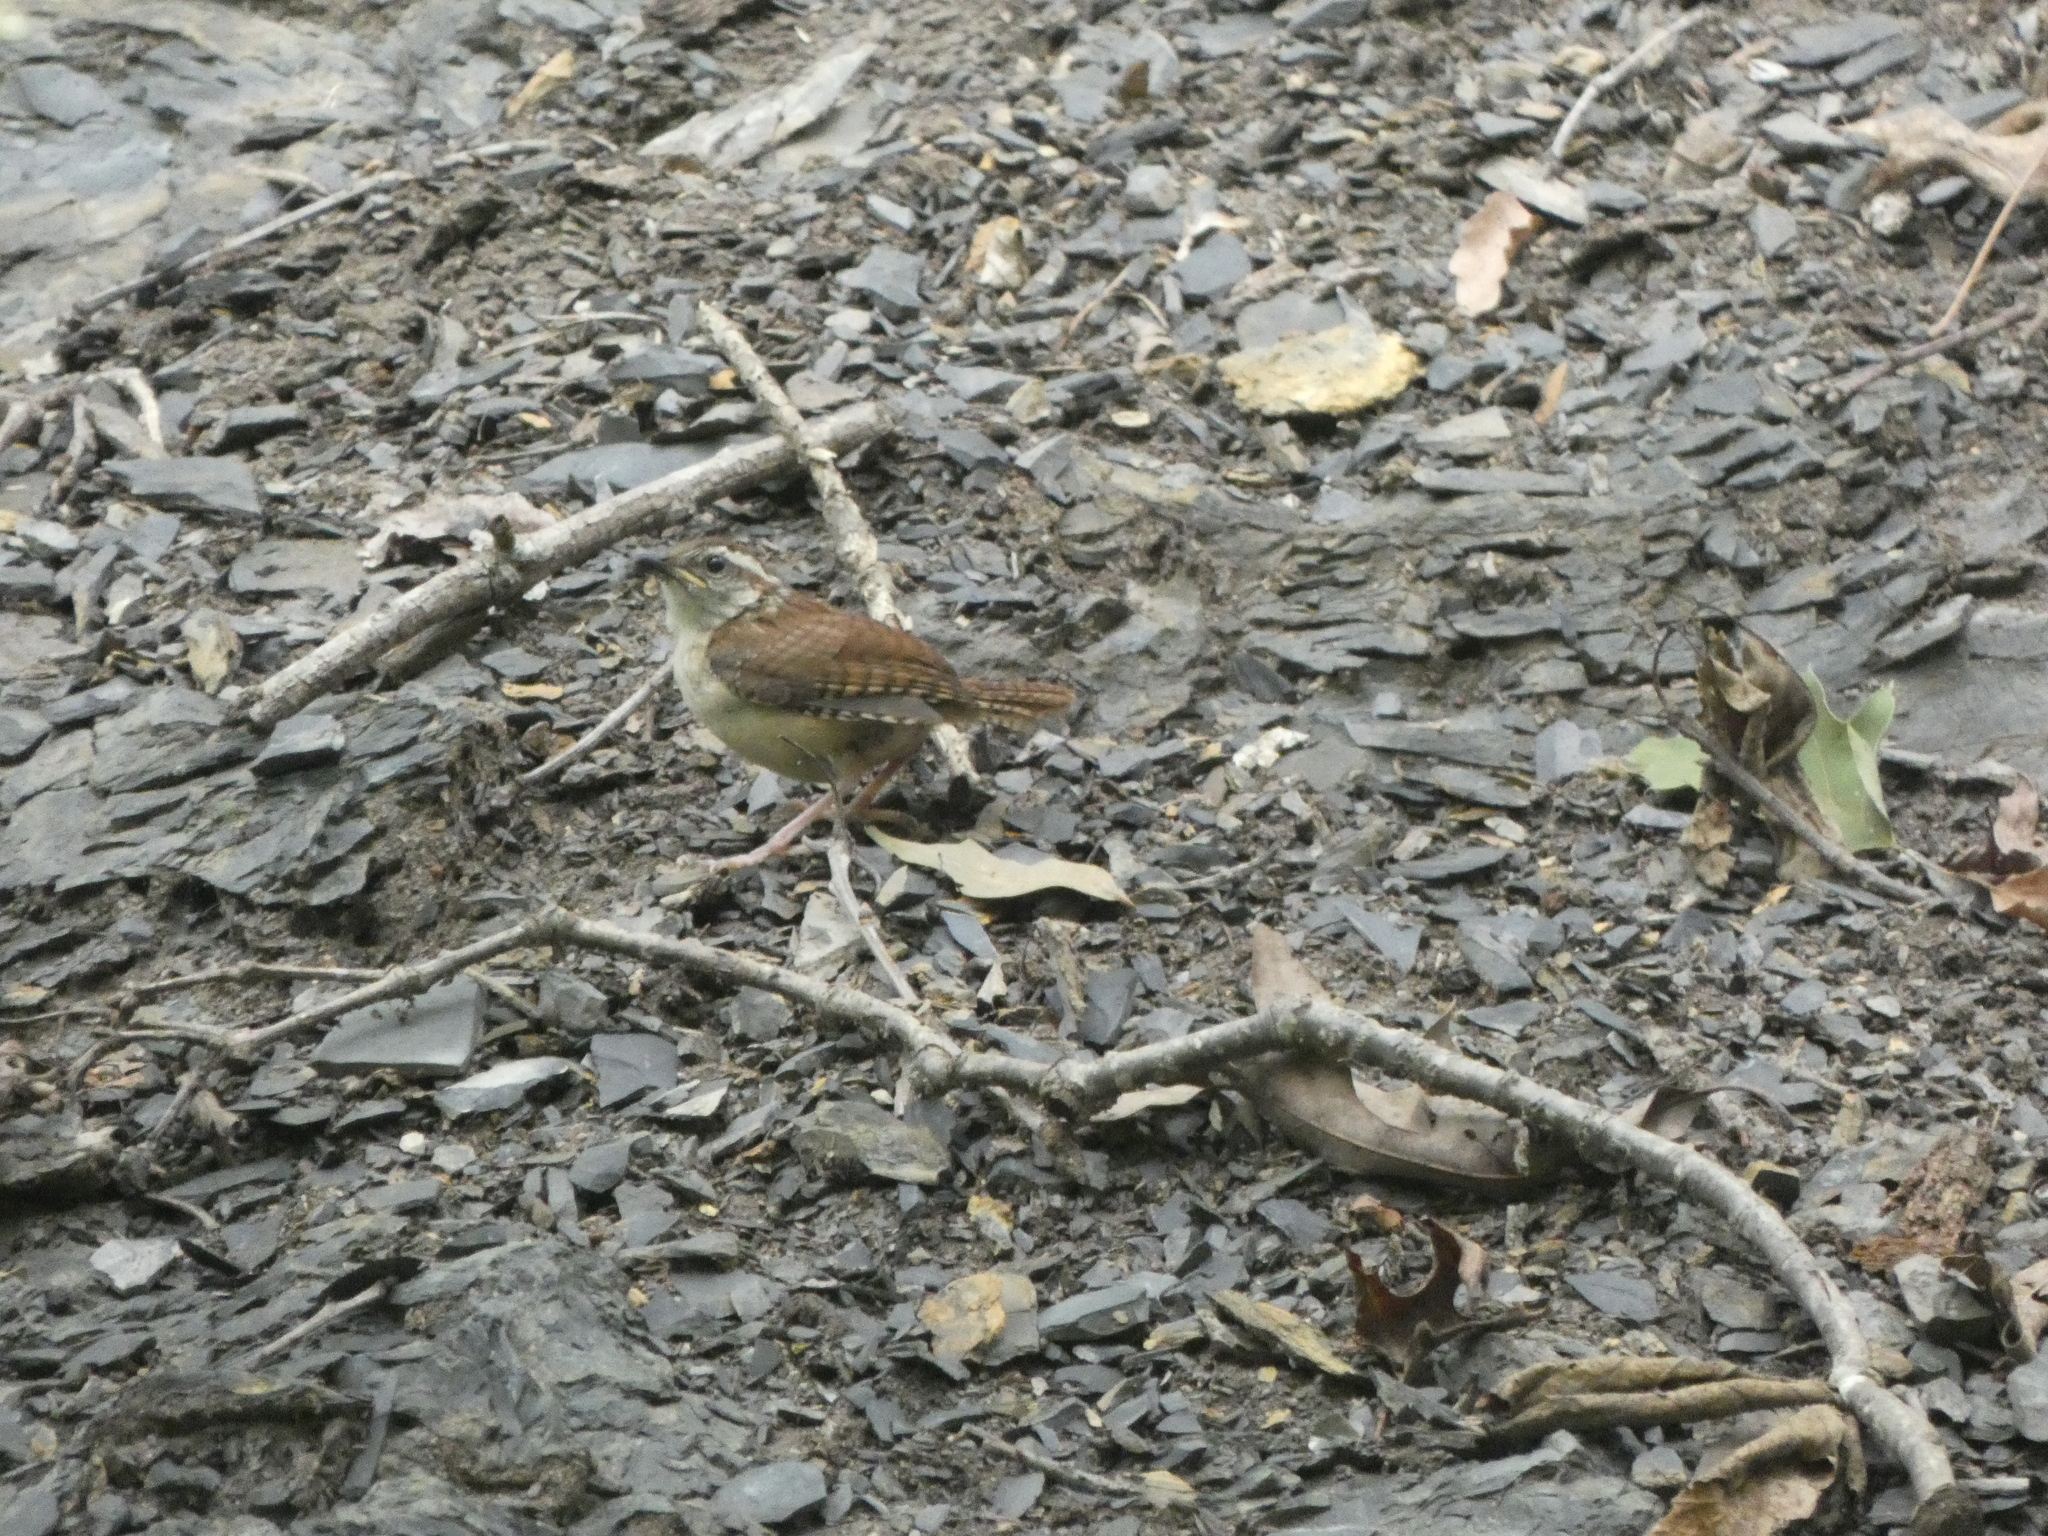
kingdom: Animalia
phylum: Chordata
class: Aves
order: Passeriformes
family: Troglodytidae
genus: Thryothorus
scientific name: Thryothorus ludovicianus
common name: Carolina wren
